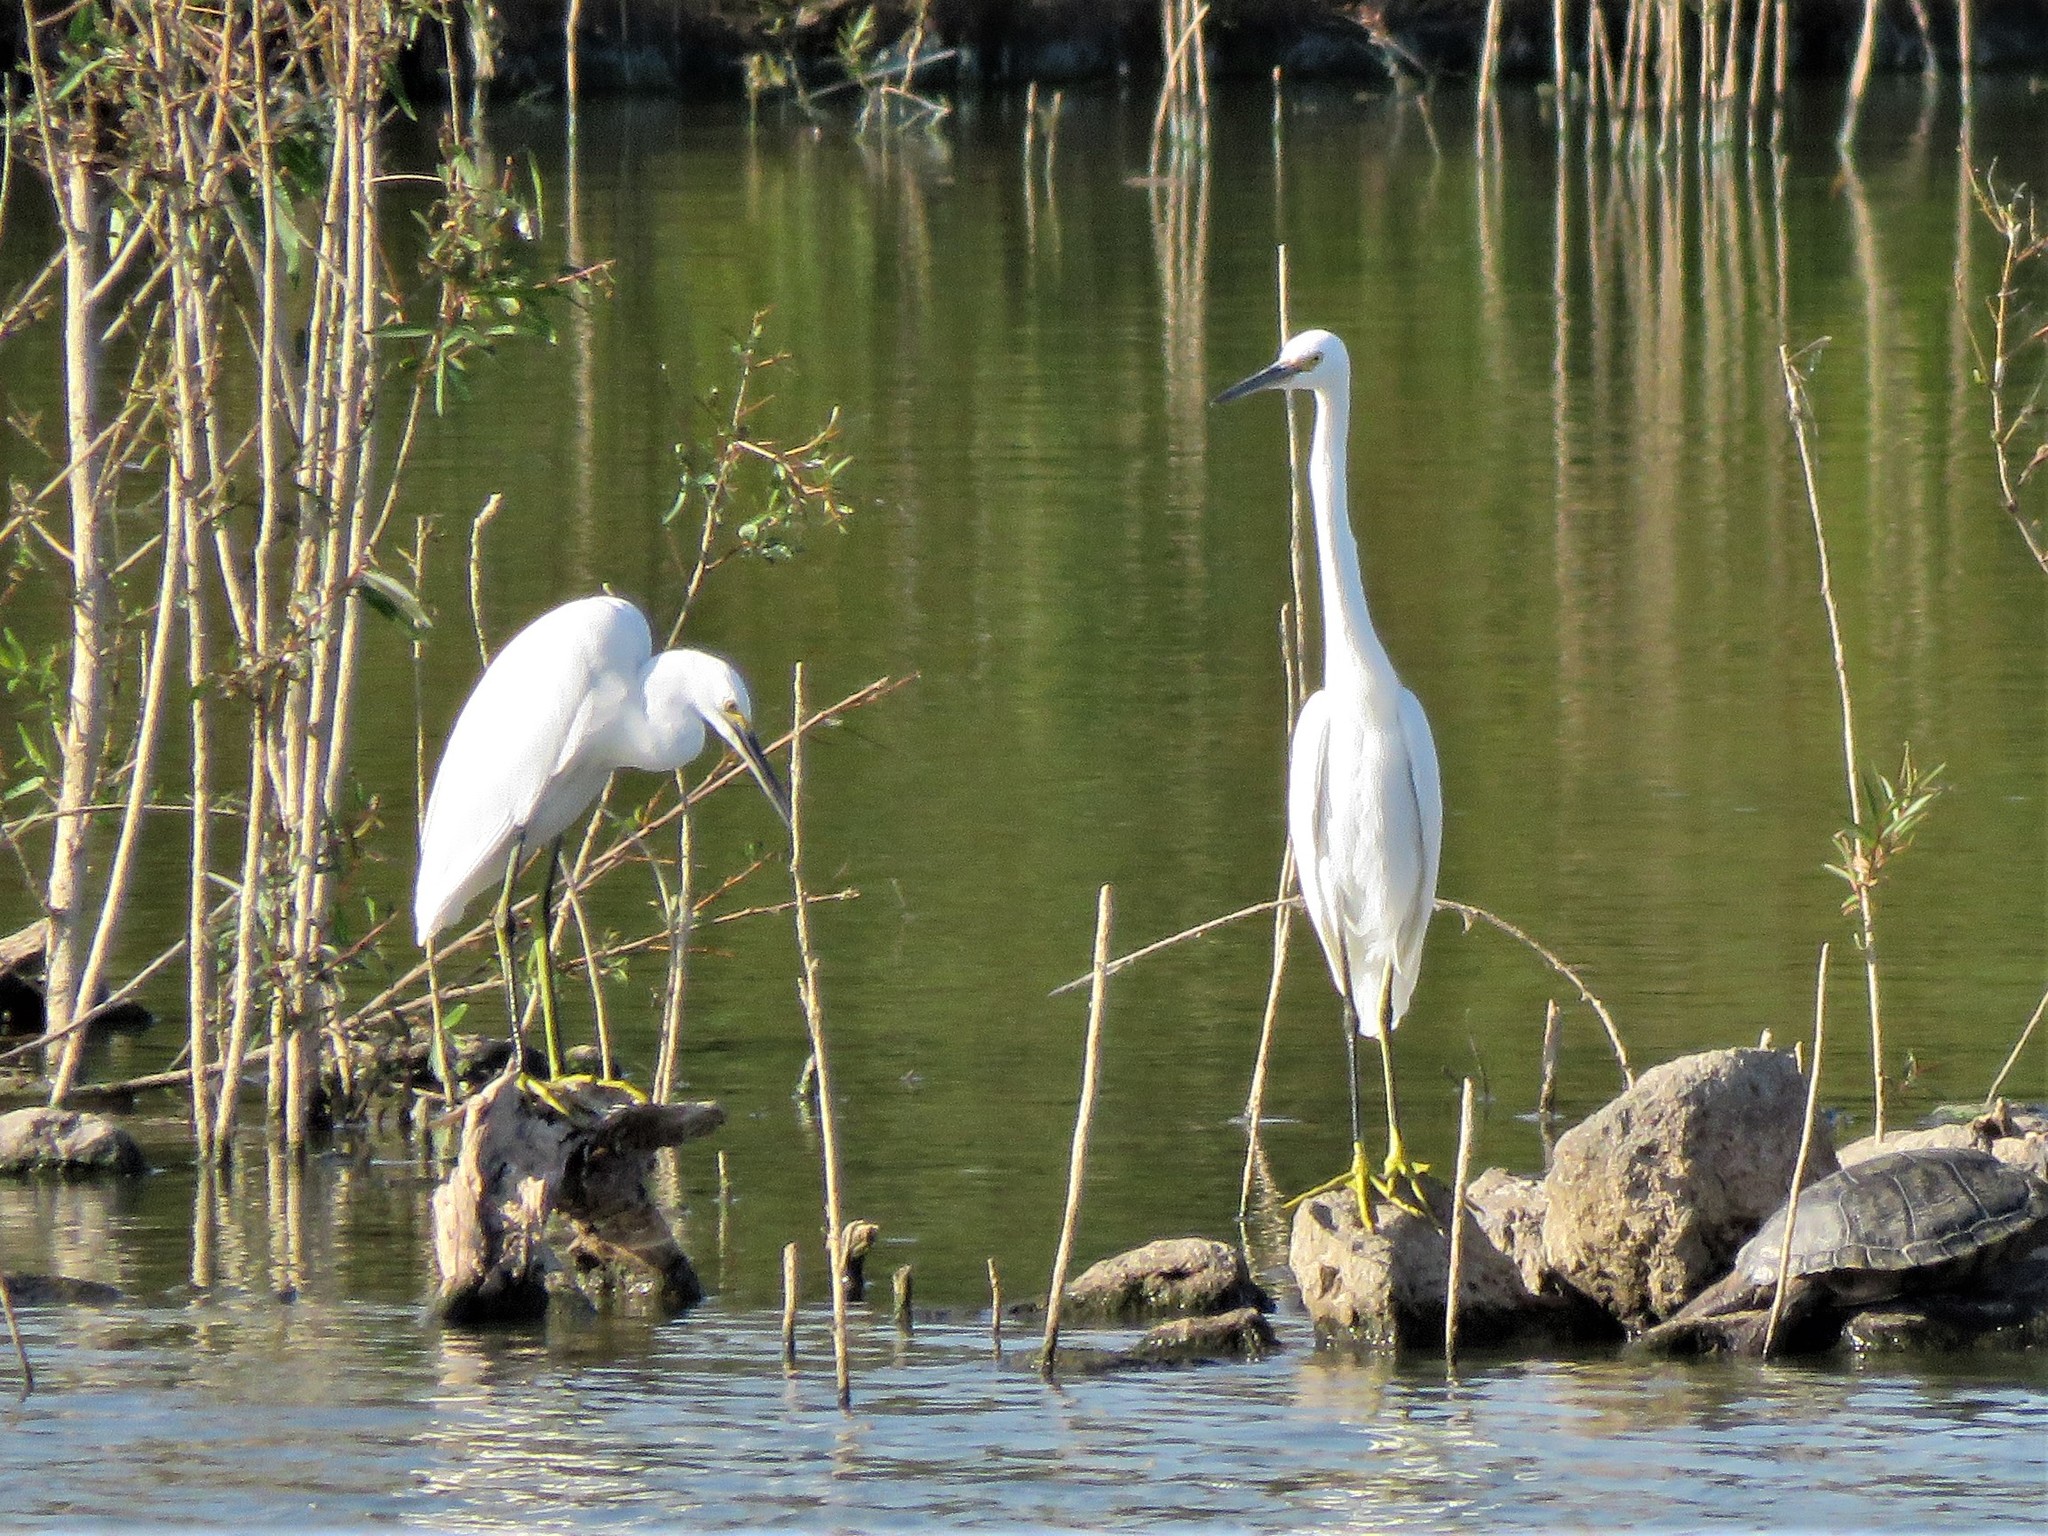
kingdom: Animalia
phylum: Chordata
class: Aves
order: Pelecaniformes
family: Ardeidae
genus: Egretta
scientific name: Egretta thula
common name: Snowy egret
